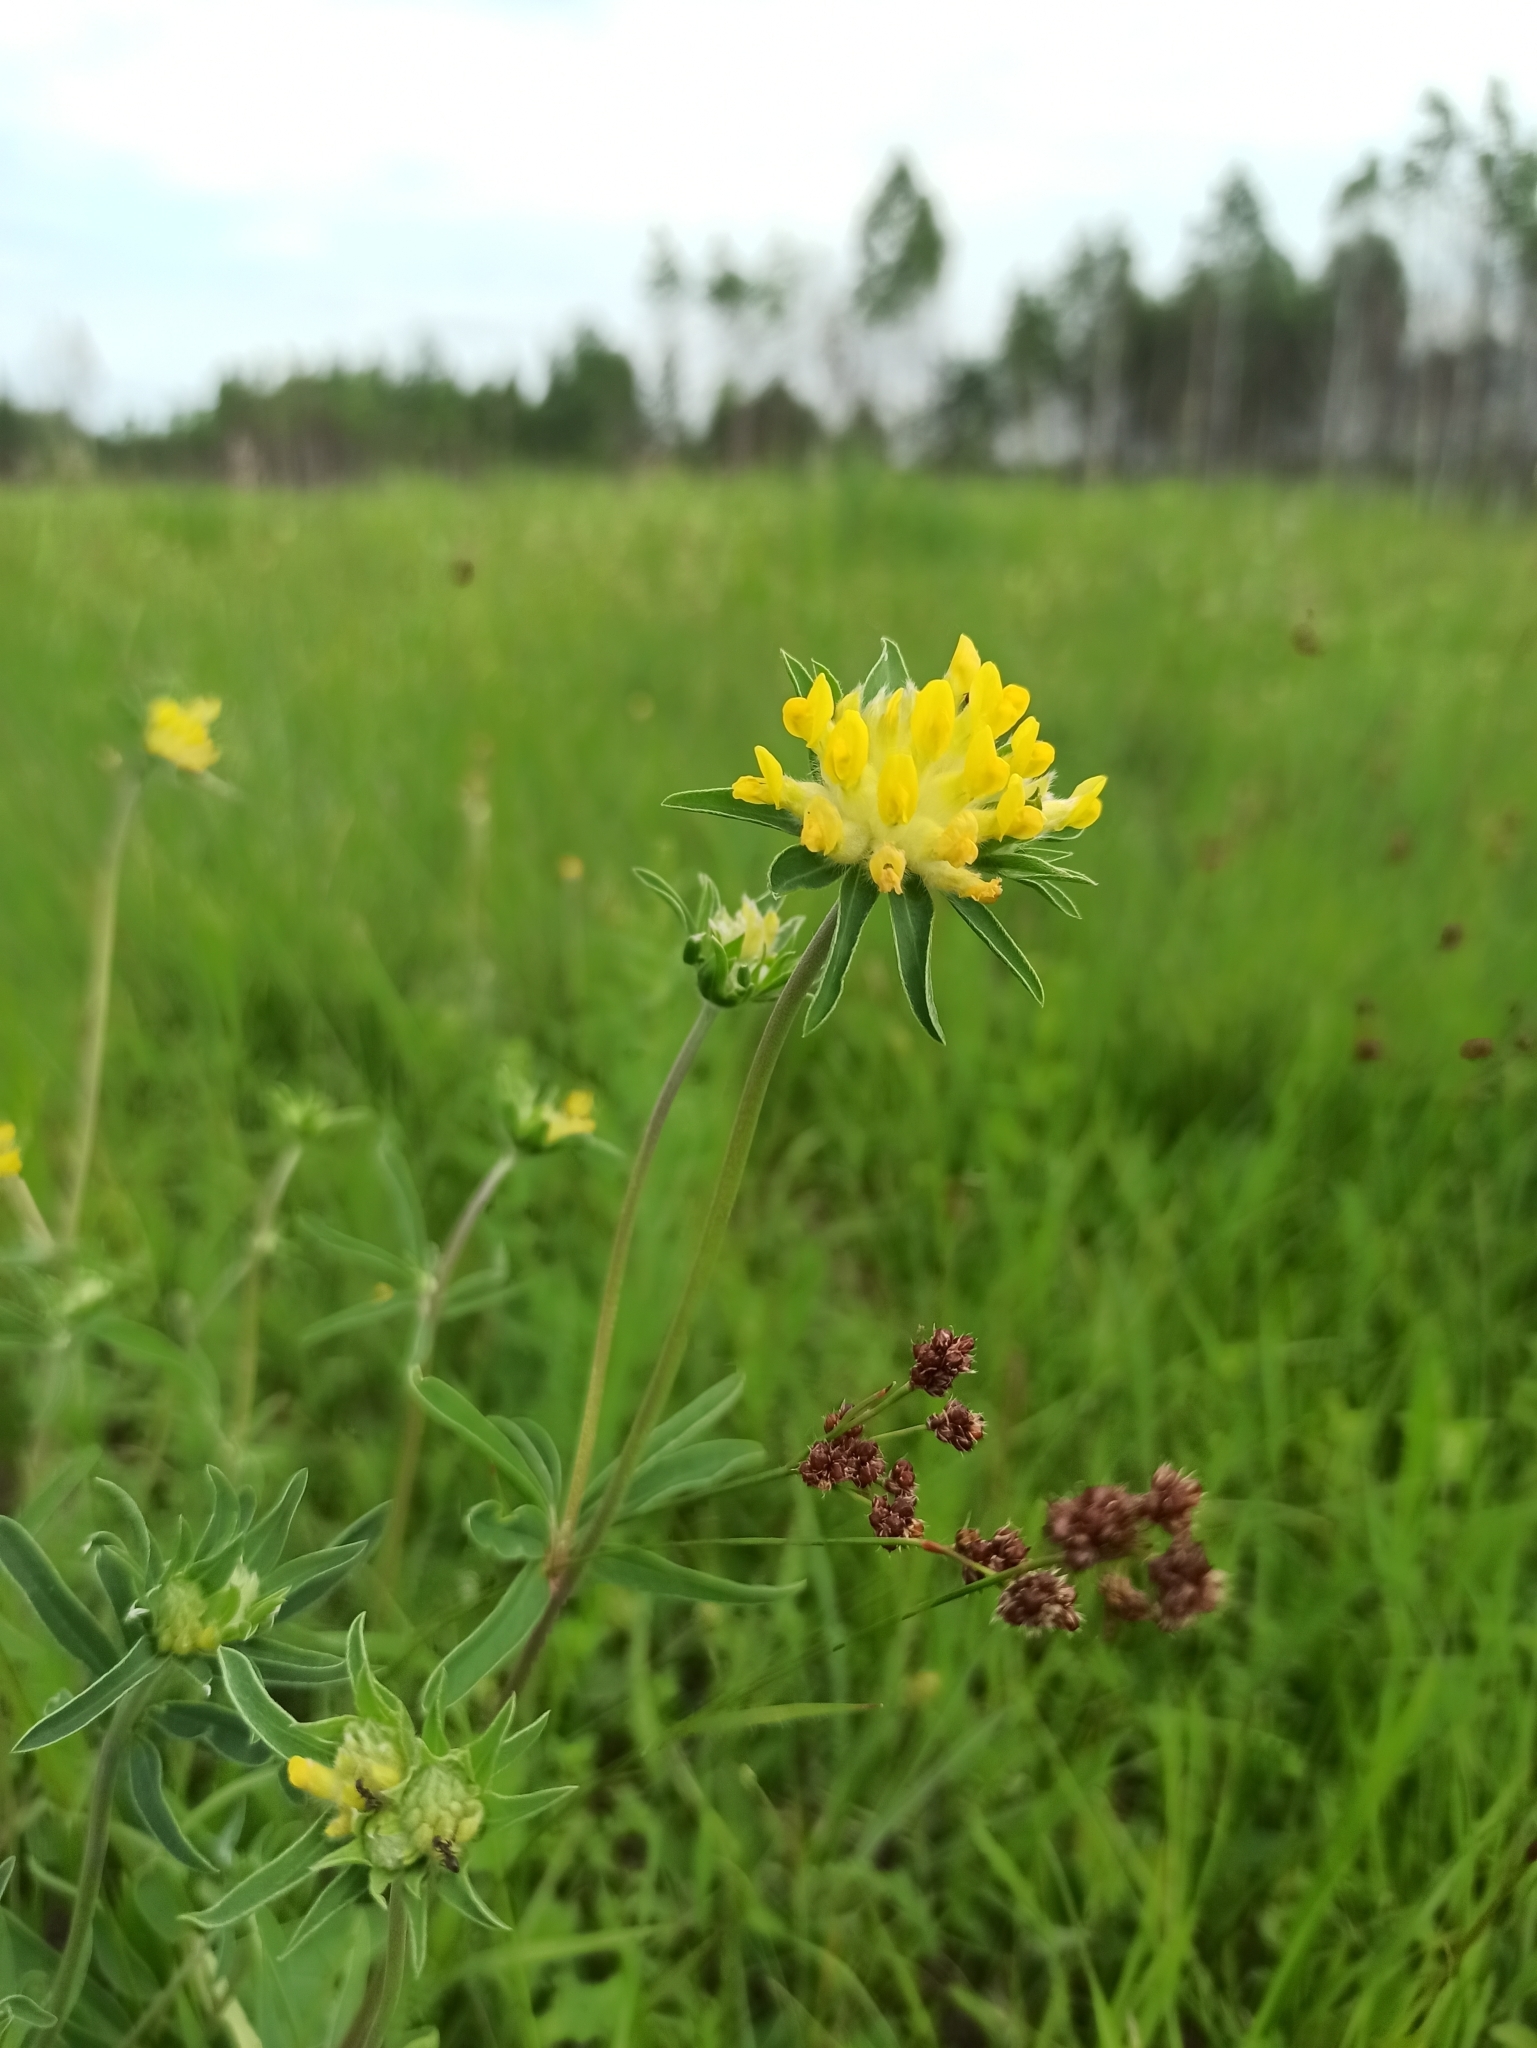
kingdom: Plantae
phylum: Tracheophyta
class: Magnoliopsida
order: Fabales
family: Fabaceae
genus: Anthyllis
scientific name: Anthyllis vulneraria
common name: Kidney vetch
